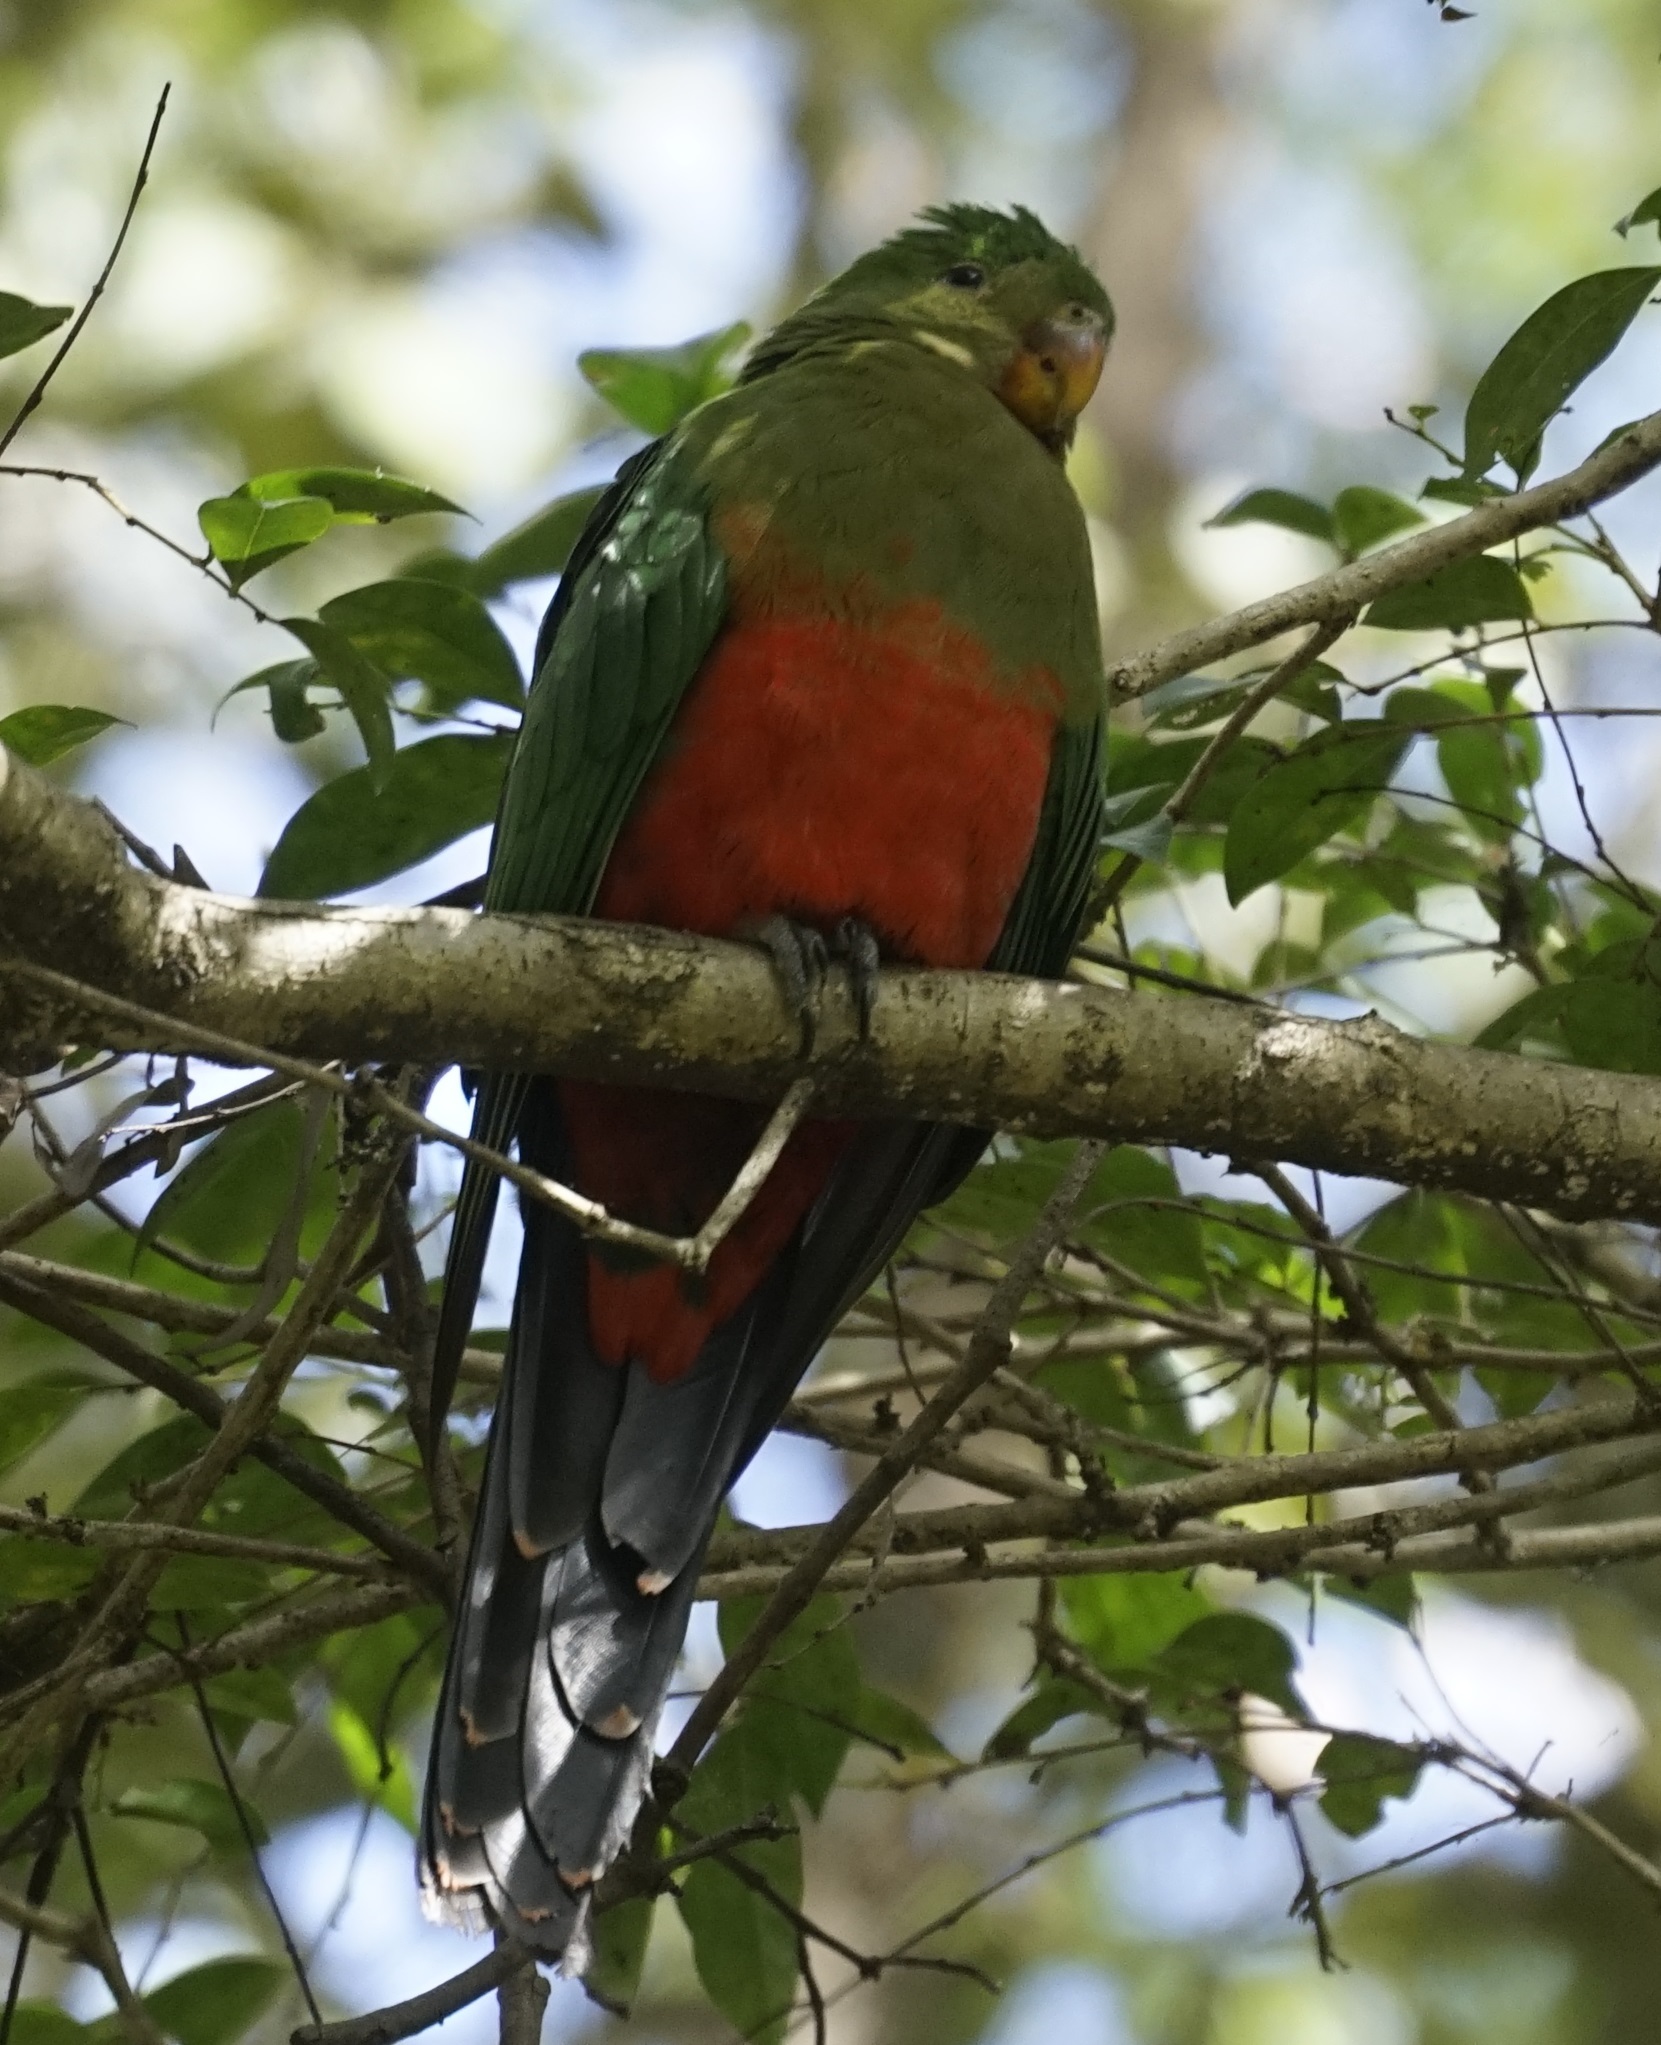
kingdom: Animalia
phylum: Chordata
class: Aves
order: Psittaciformes
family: Psittacidae
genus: Alisterus
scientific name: Alisterus scapularis
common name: Australian king parrot
